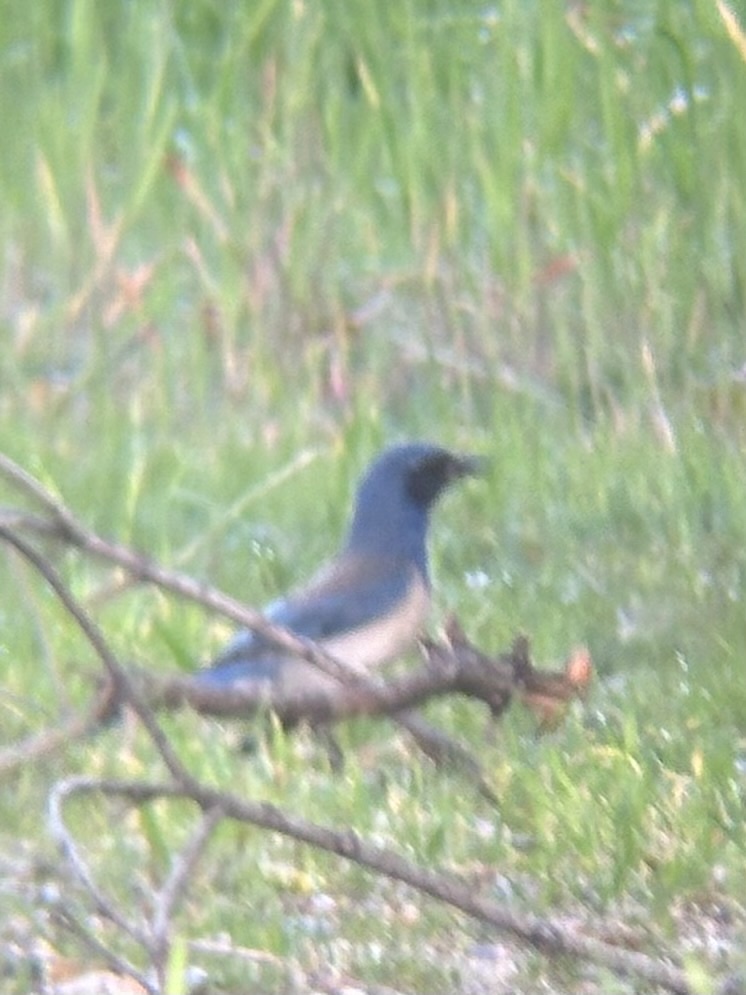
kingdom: Animalia
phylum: Chordata
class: Aves
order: Passeriformes
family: Corvidae
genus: Aphelocoma
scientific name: Aphelocoma californica
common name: California scrub-jay
